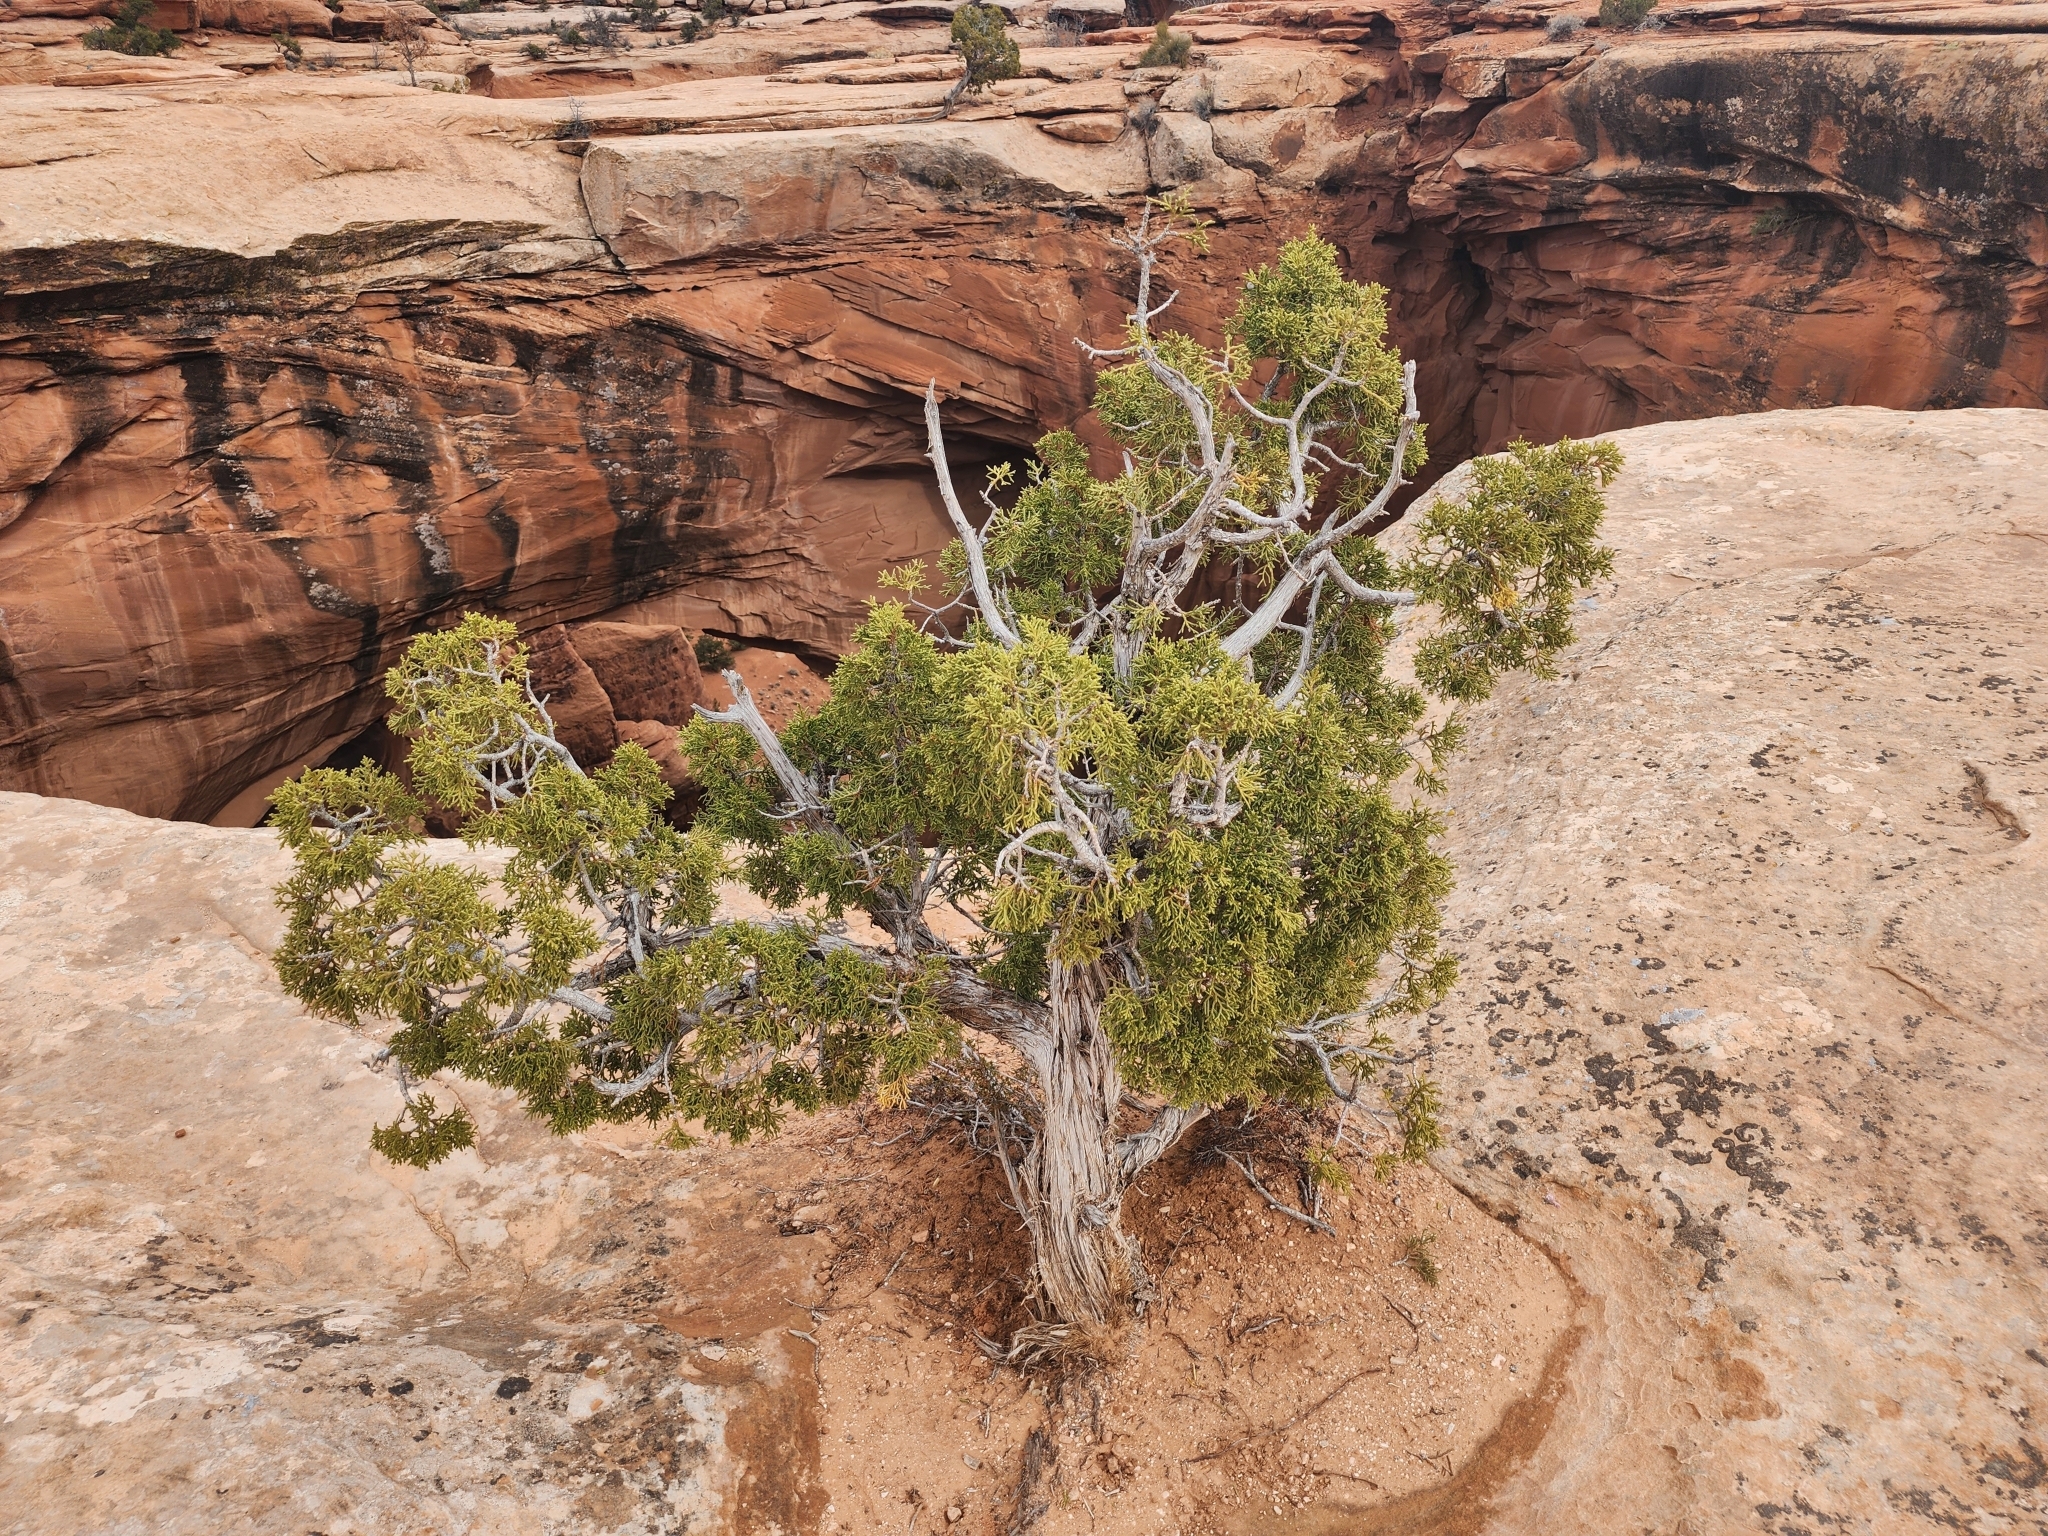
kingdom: Plantae
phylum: Tracheophyta
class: Pinopsida
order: Pinales
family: Cupressaceae
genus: Juniperus
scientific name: Juniperus osteosperma
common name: Utah juniper
